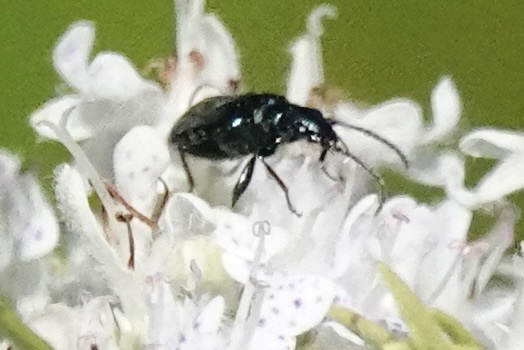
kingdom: Animalia
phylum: Arthropoda
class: Insecta
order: Coleoptera
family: Carabidae
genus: Lebia
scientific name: Lebia viridis
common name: Flower lebia beetle
